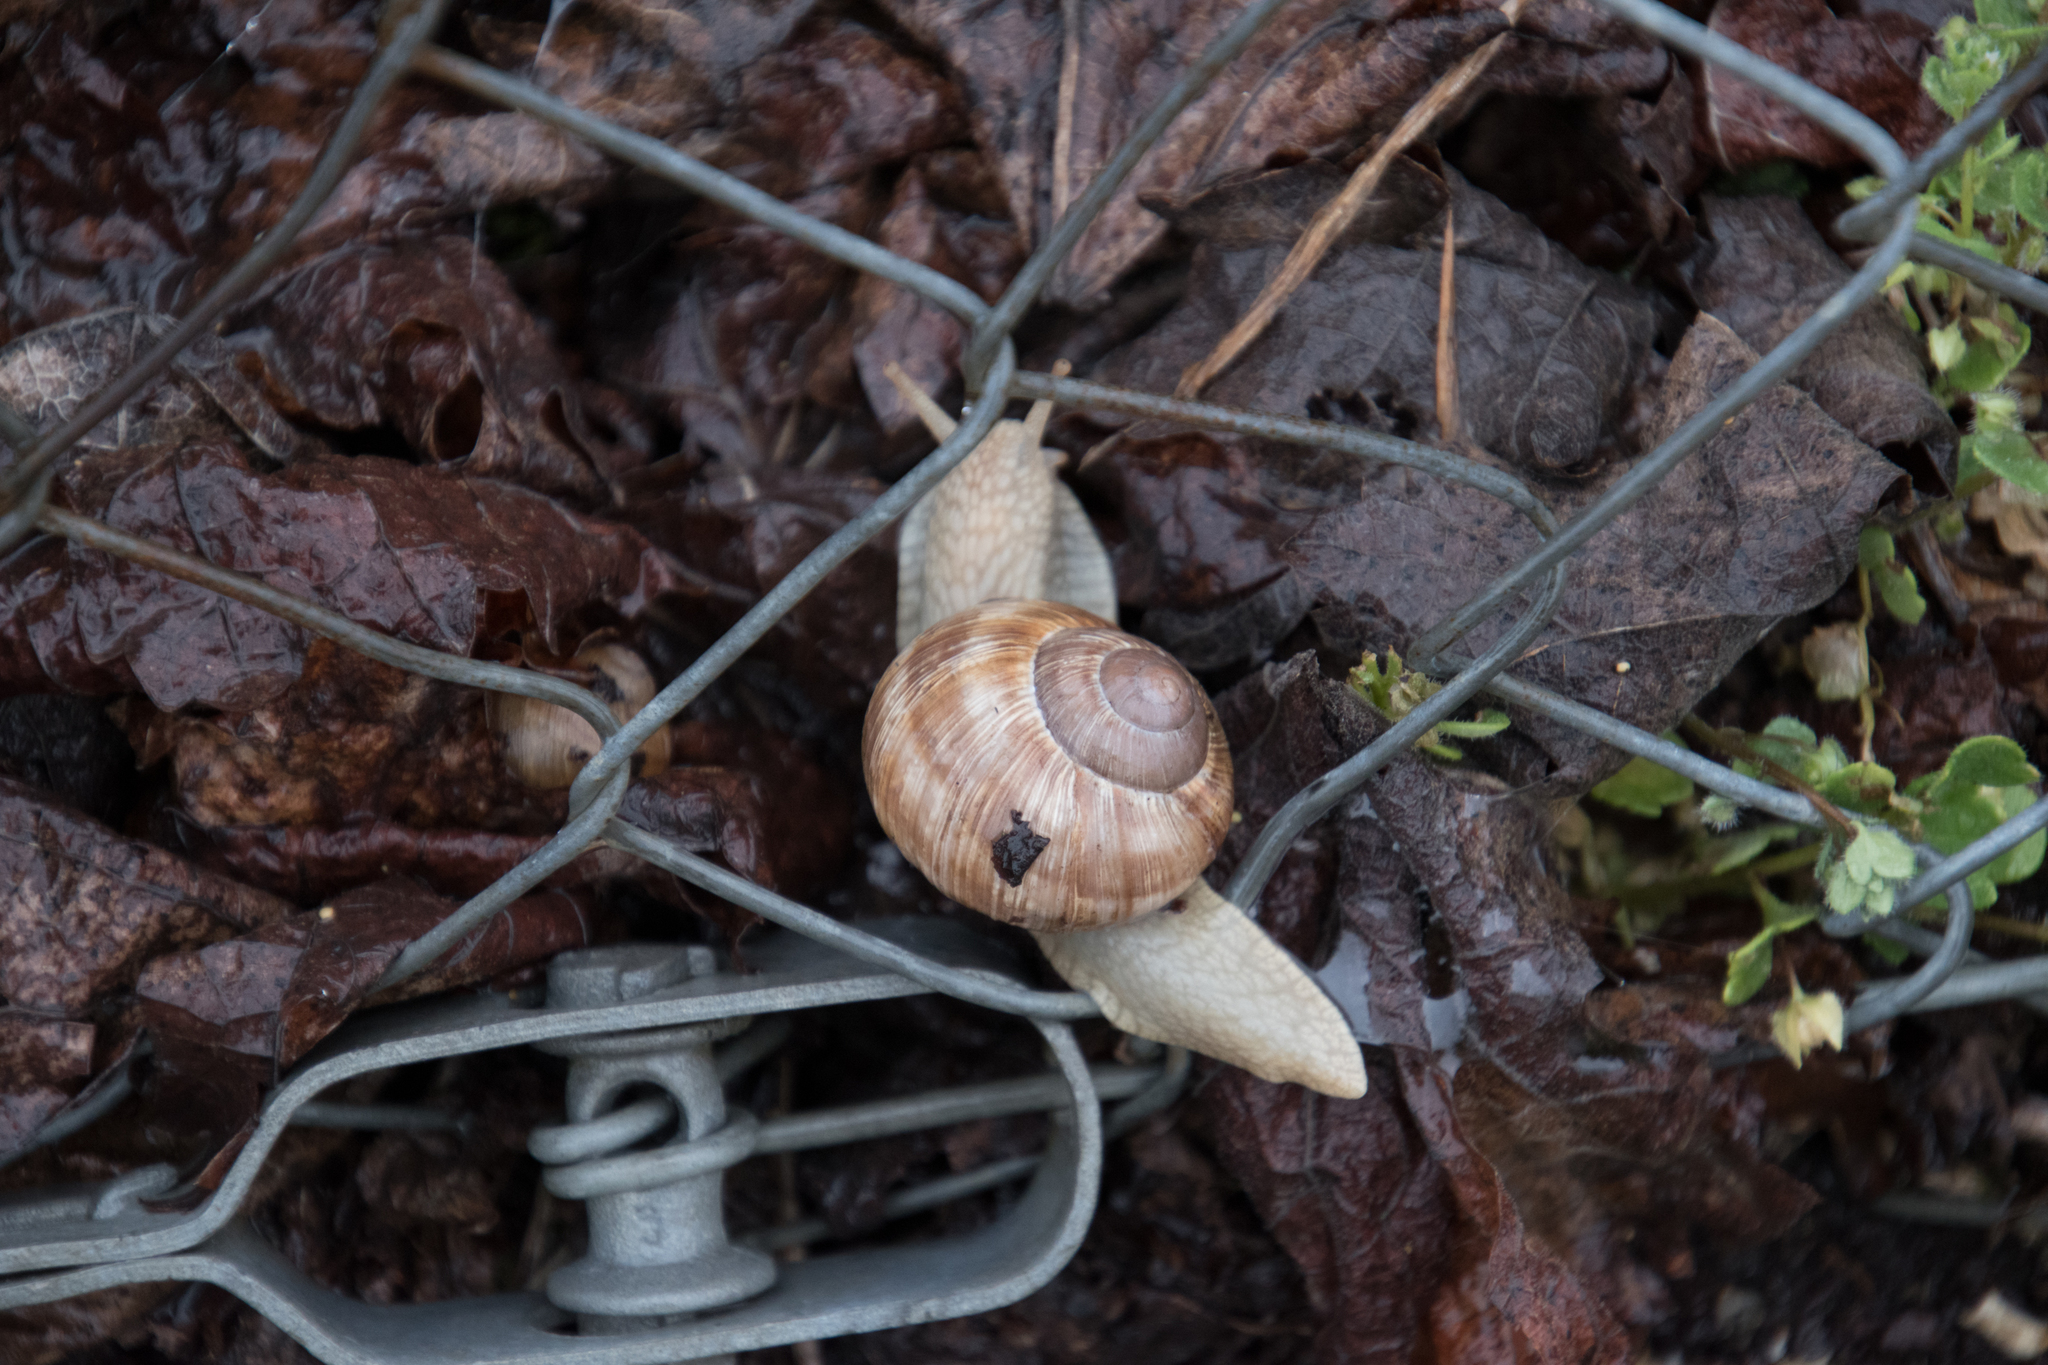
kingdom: Animalia
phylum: Mollusca
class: Gastropoda
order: Stylommatophora
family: Helicidae
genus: Helix
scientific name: Helix pomatia
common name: Roman snail
